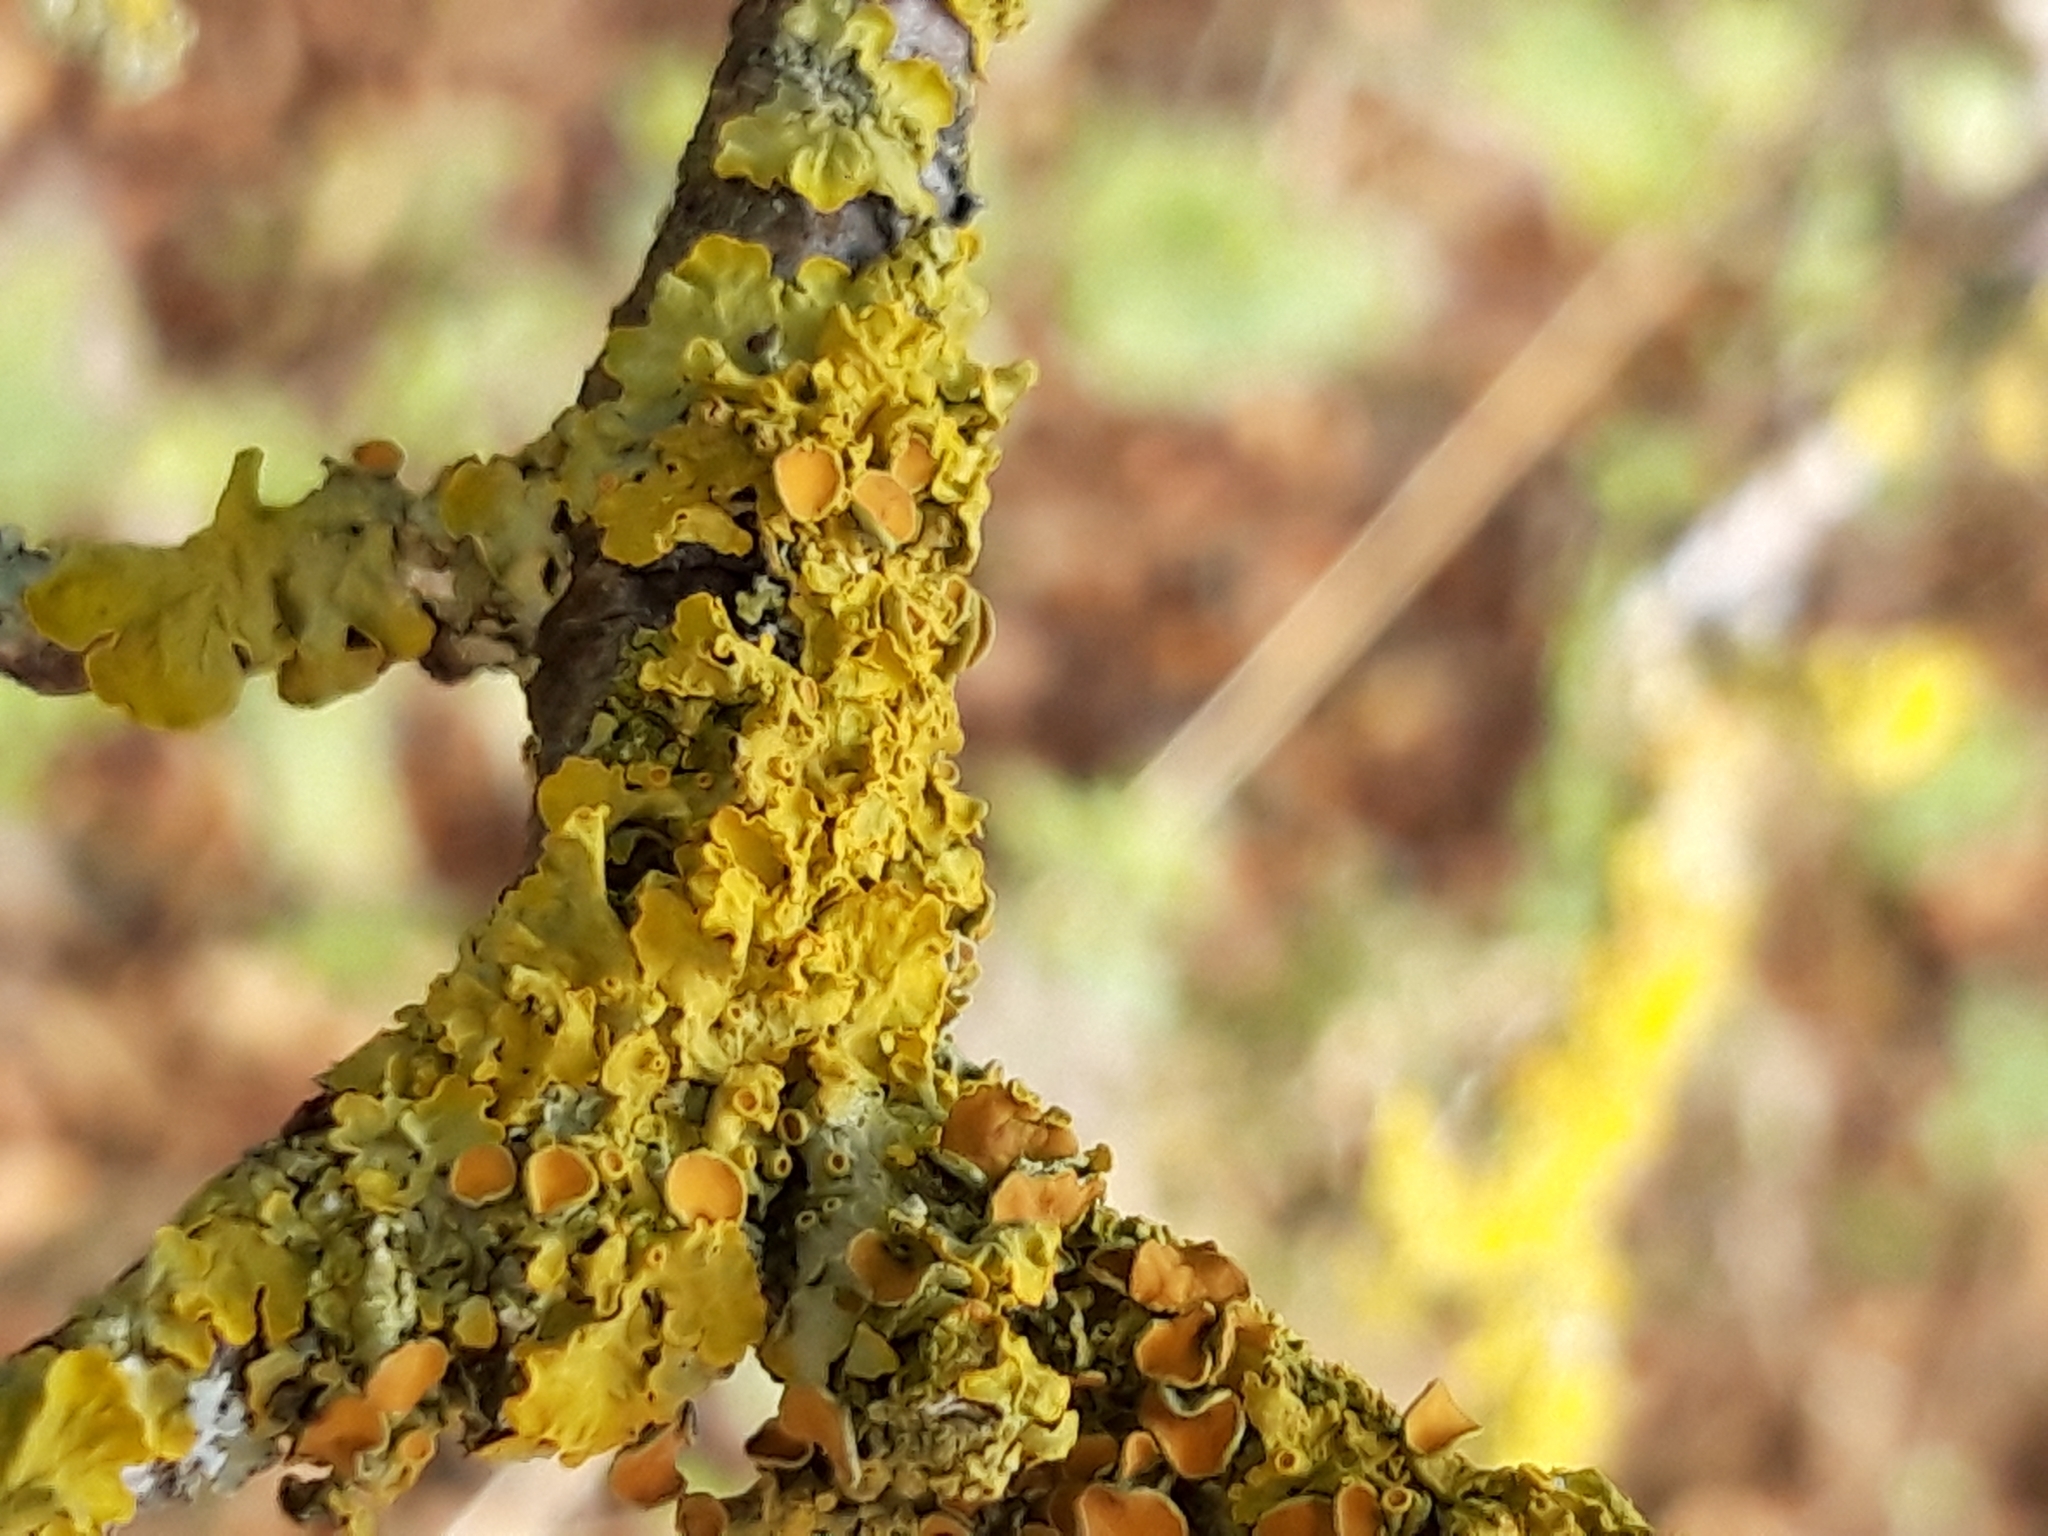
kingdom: Fungi
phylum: Ascomycota
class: Lecanoromycetes
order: Teloschistales
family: Teloschistaceae
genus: Xanthoria
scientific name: Xanthoria parietina
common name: Common orange lichen
